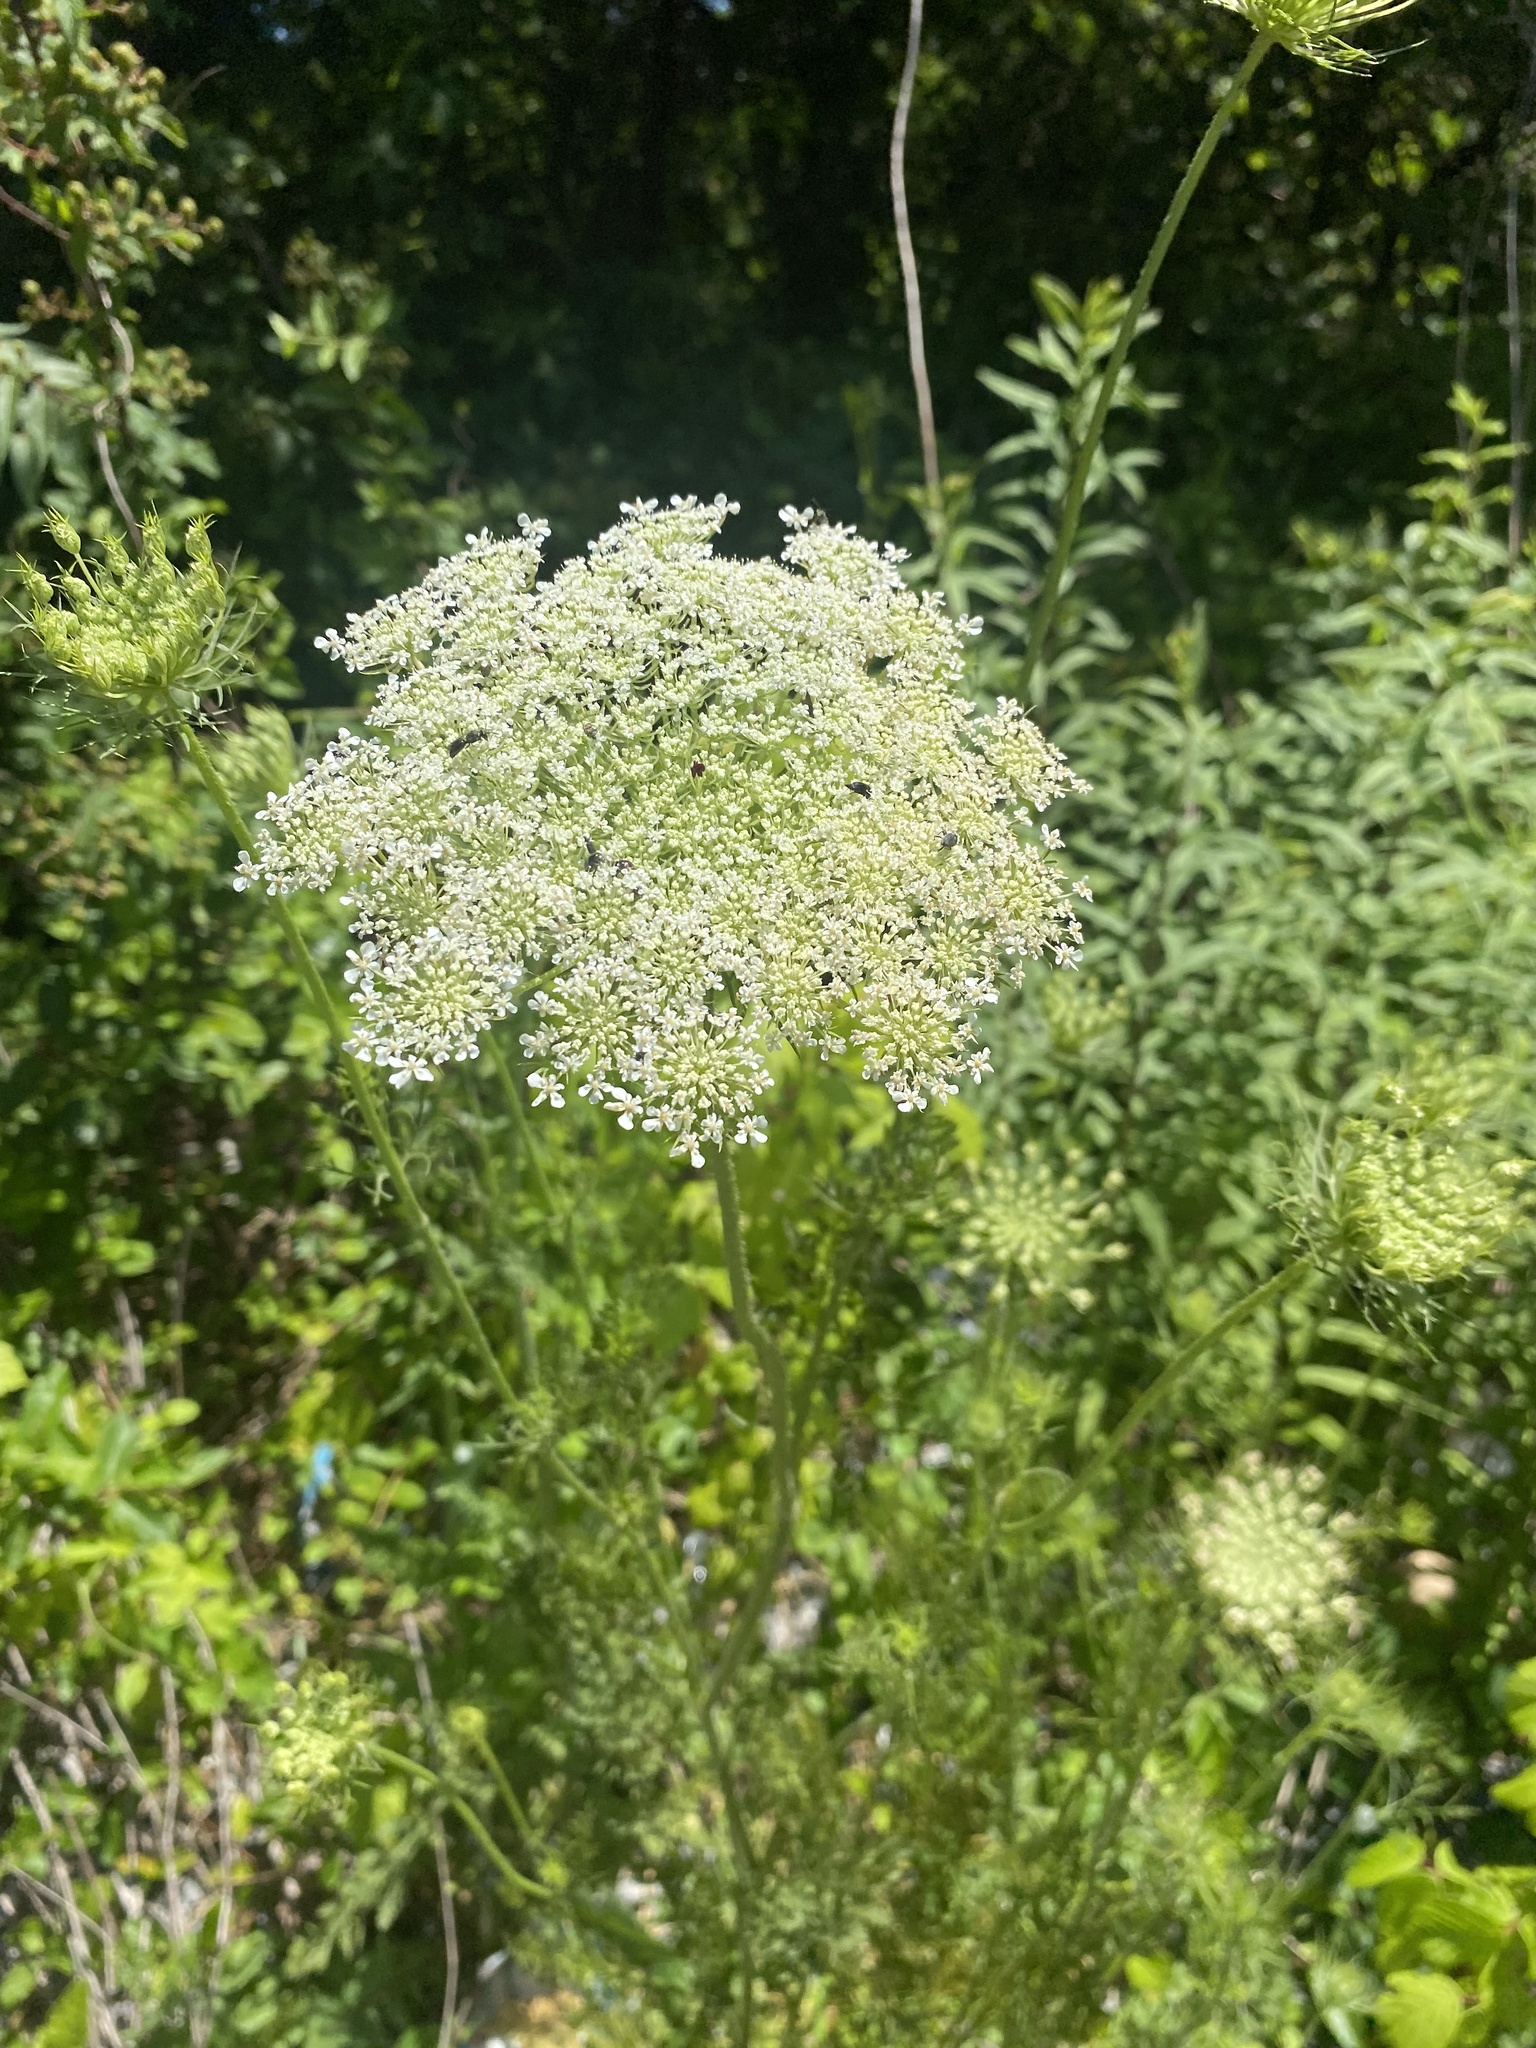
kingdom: Plantae
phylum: Tracheophyta
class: Magnoliopsida
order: Apiales
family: Apiaceae
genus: Daucus
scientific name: Daucus carota
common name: Wild carrot
